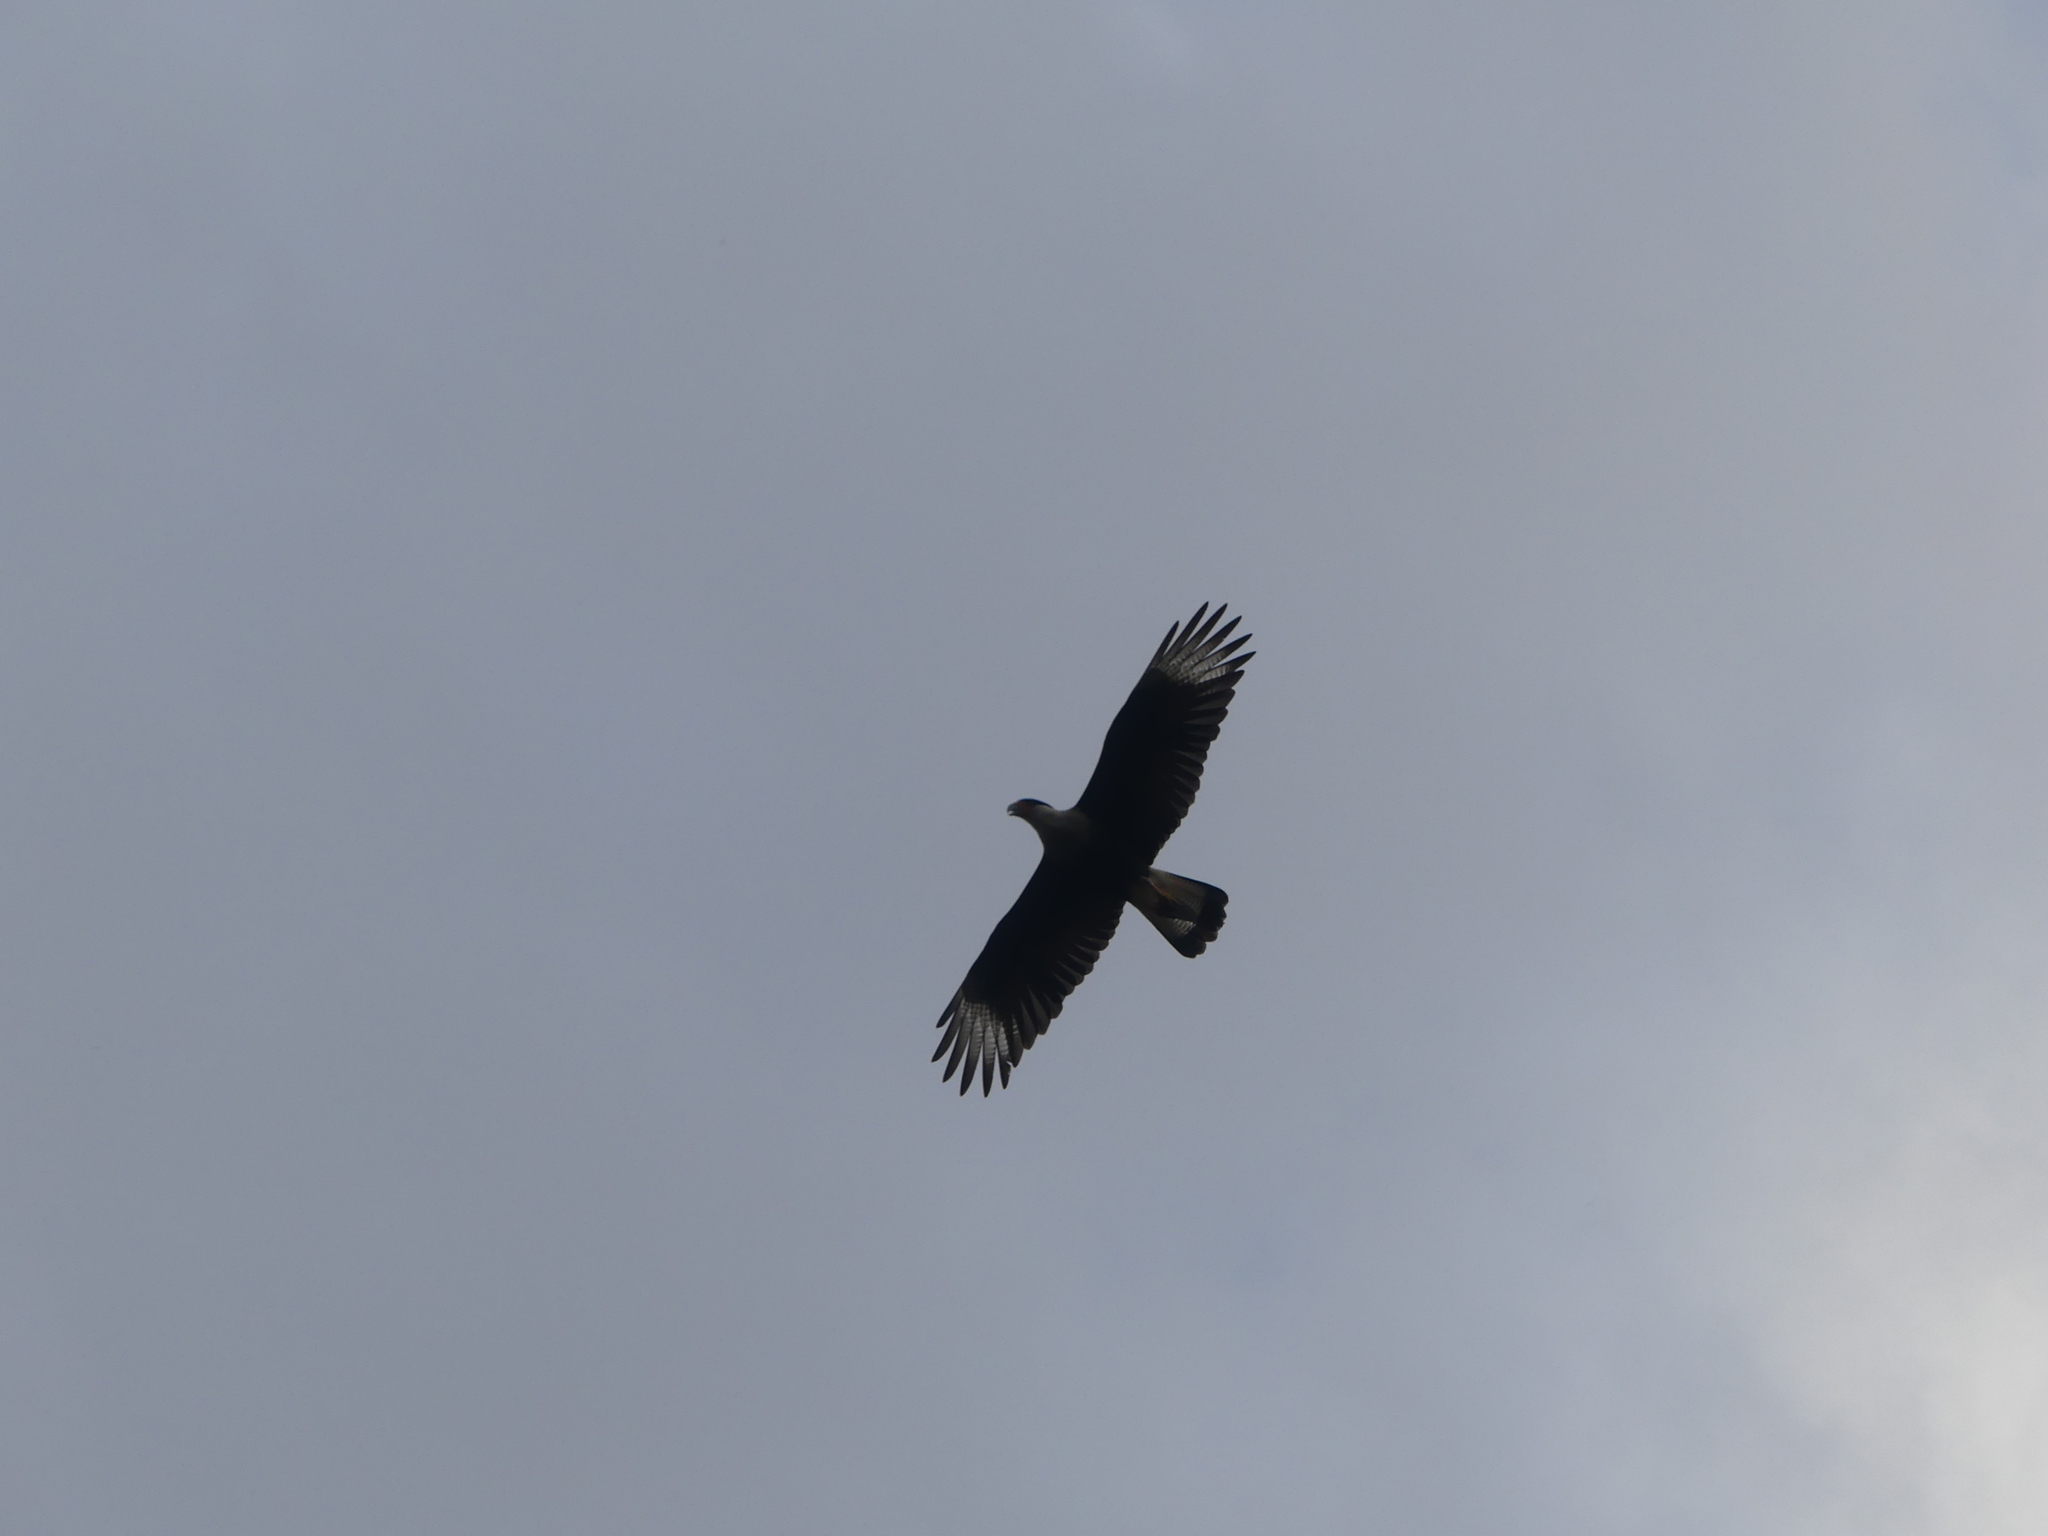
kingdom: Animalia
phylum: Chordata
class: Aves
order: Falconiformes
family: Falconidae
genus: Caracara
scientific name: Caracara plancus
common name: Southern caracara
